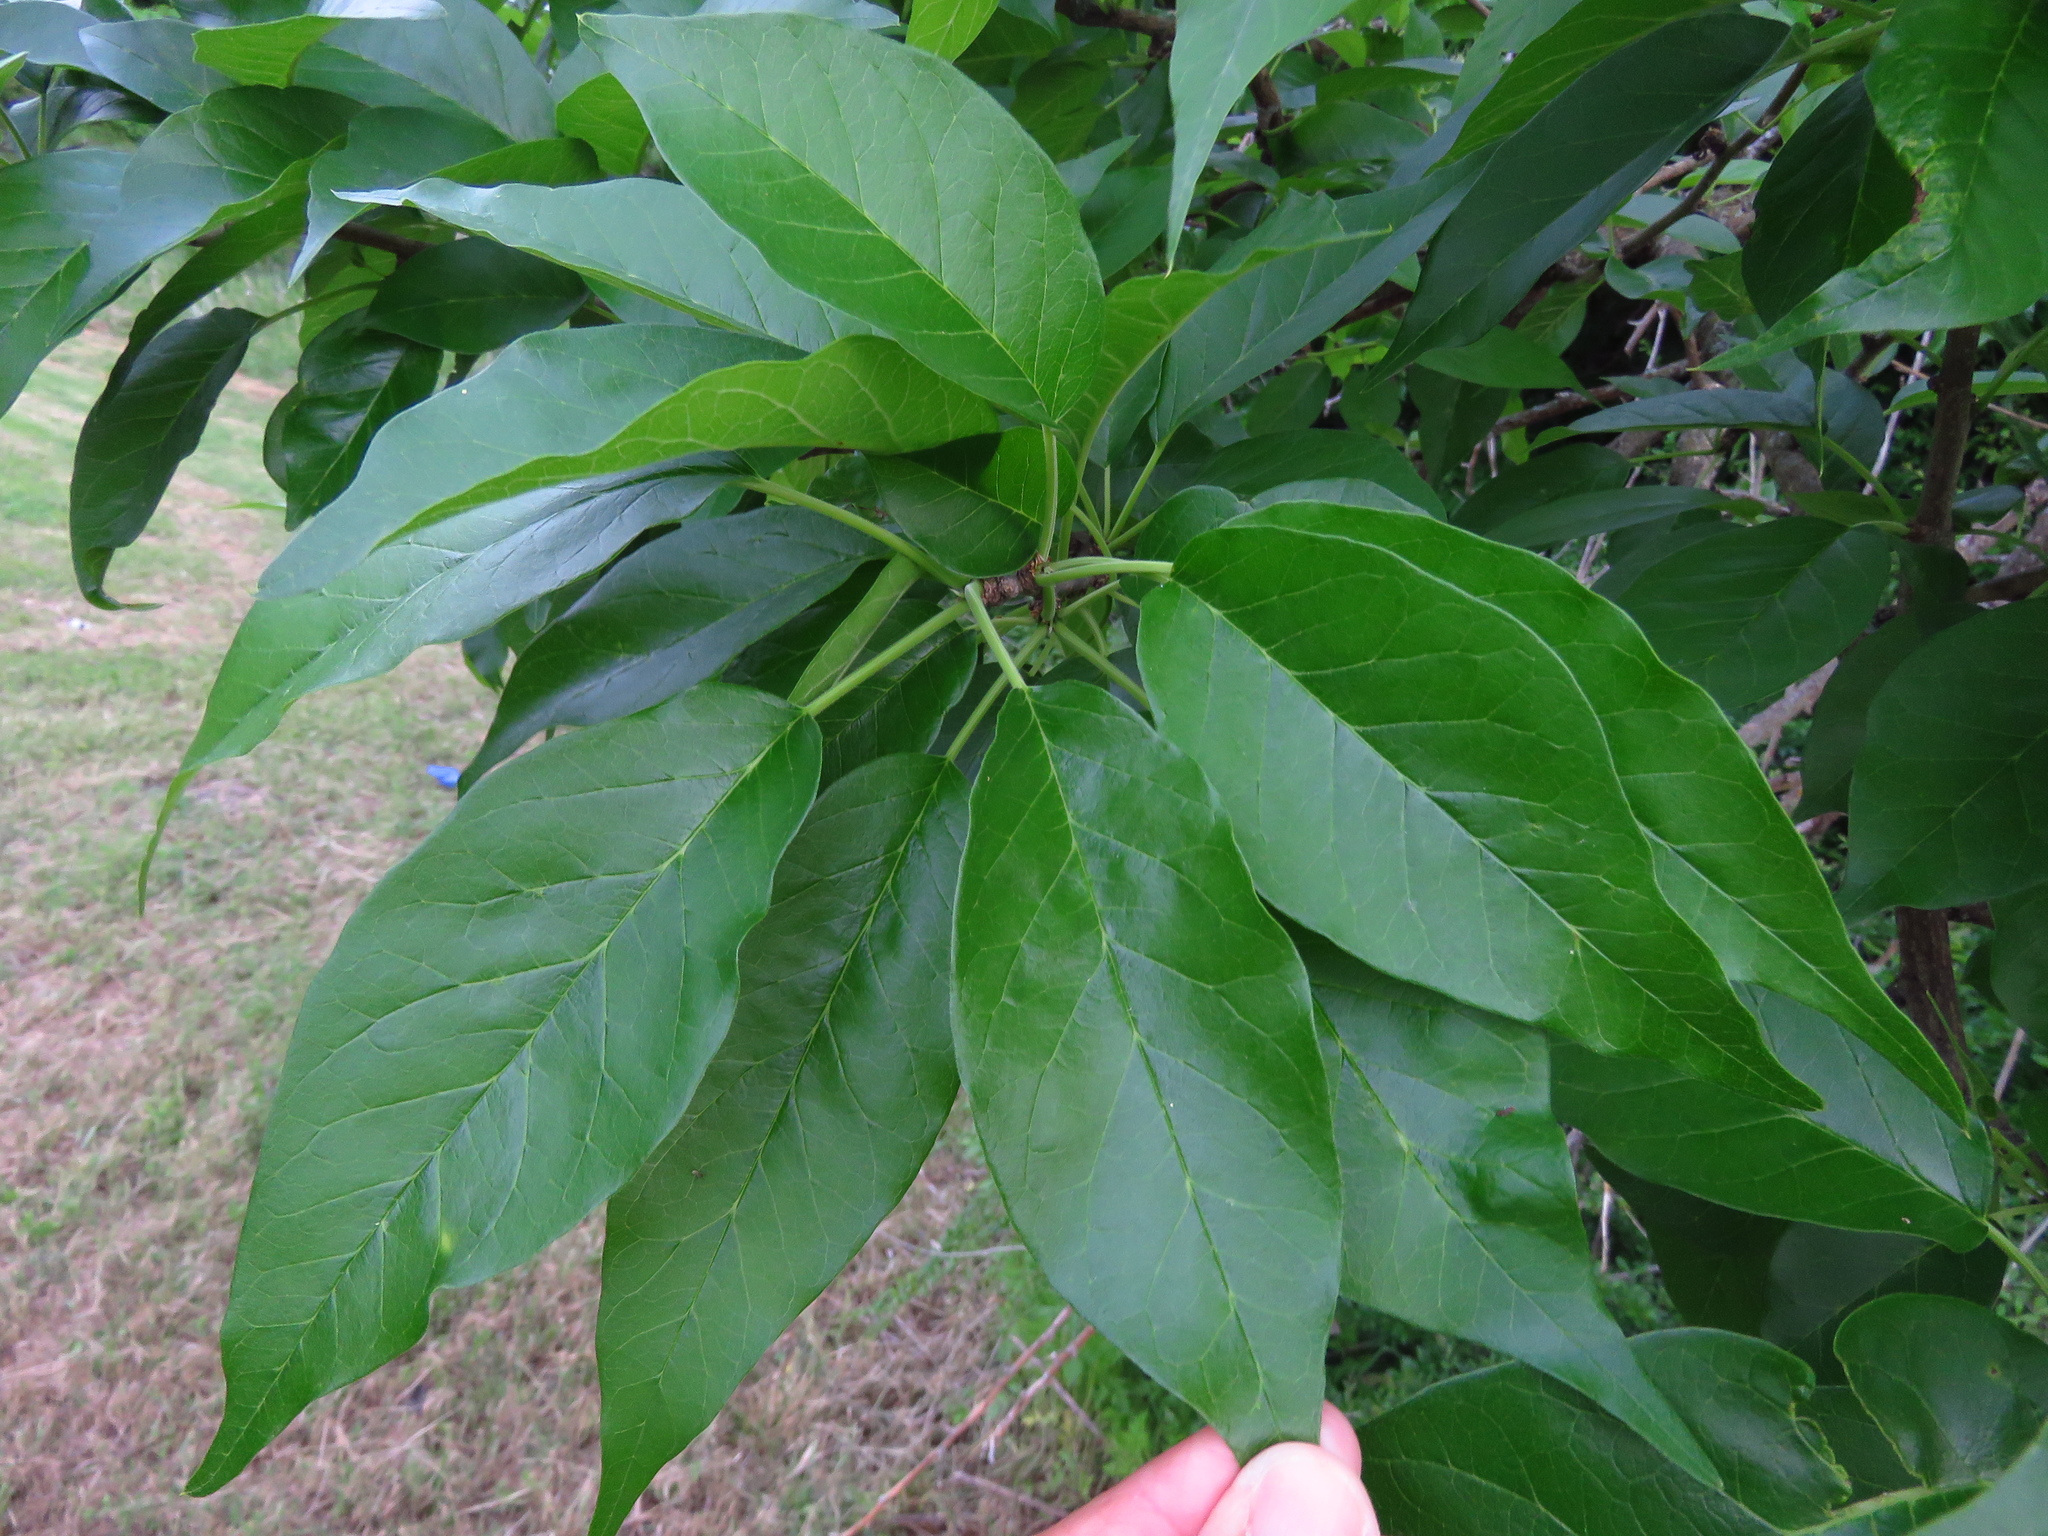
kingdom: Plantae
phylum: Tracheophyta
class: Magnoliopsida
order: Rosales
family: Moraceae
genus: Maclura
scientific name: Maclura pomifera
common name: Osage-orange
